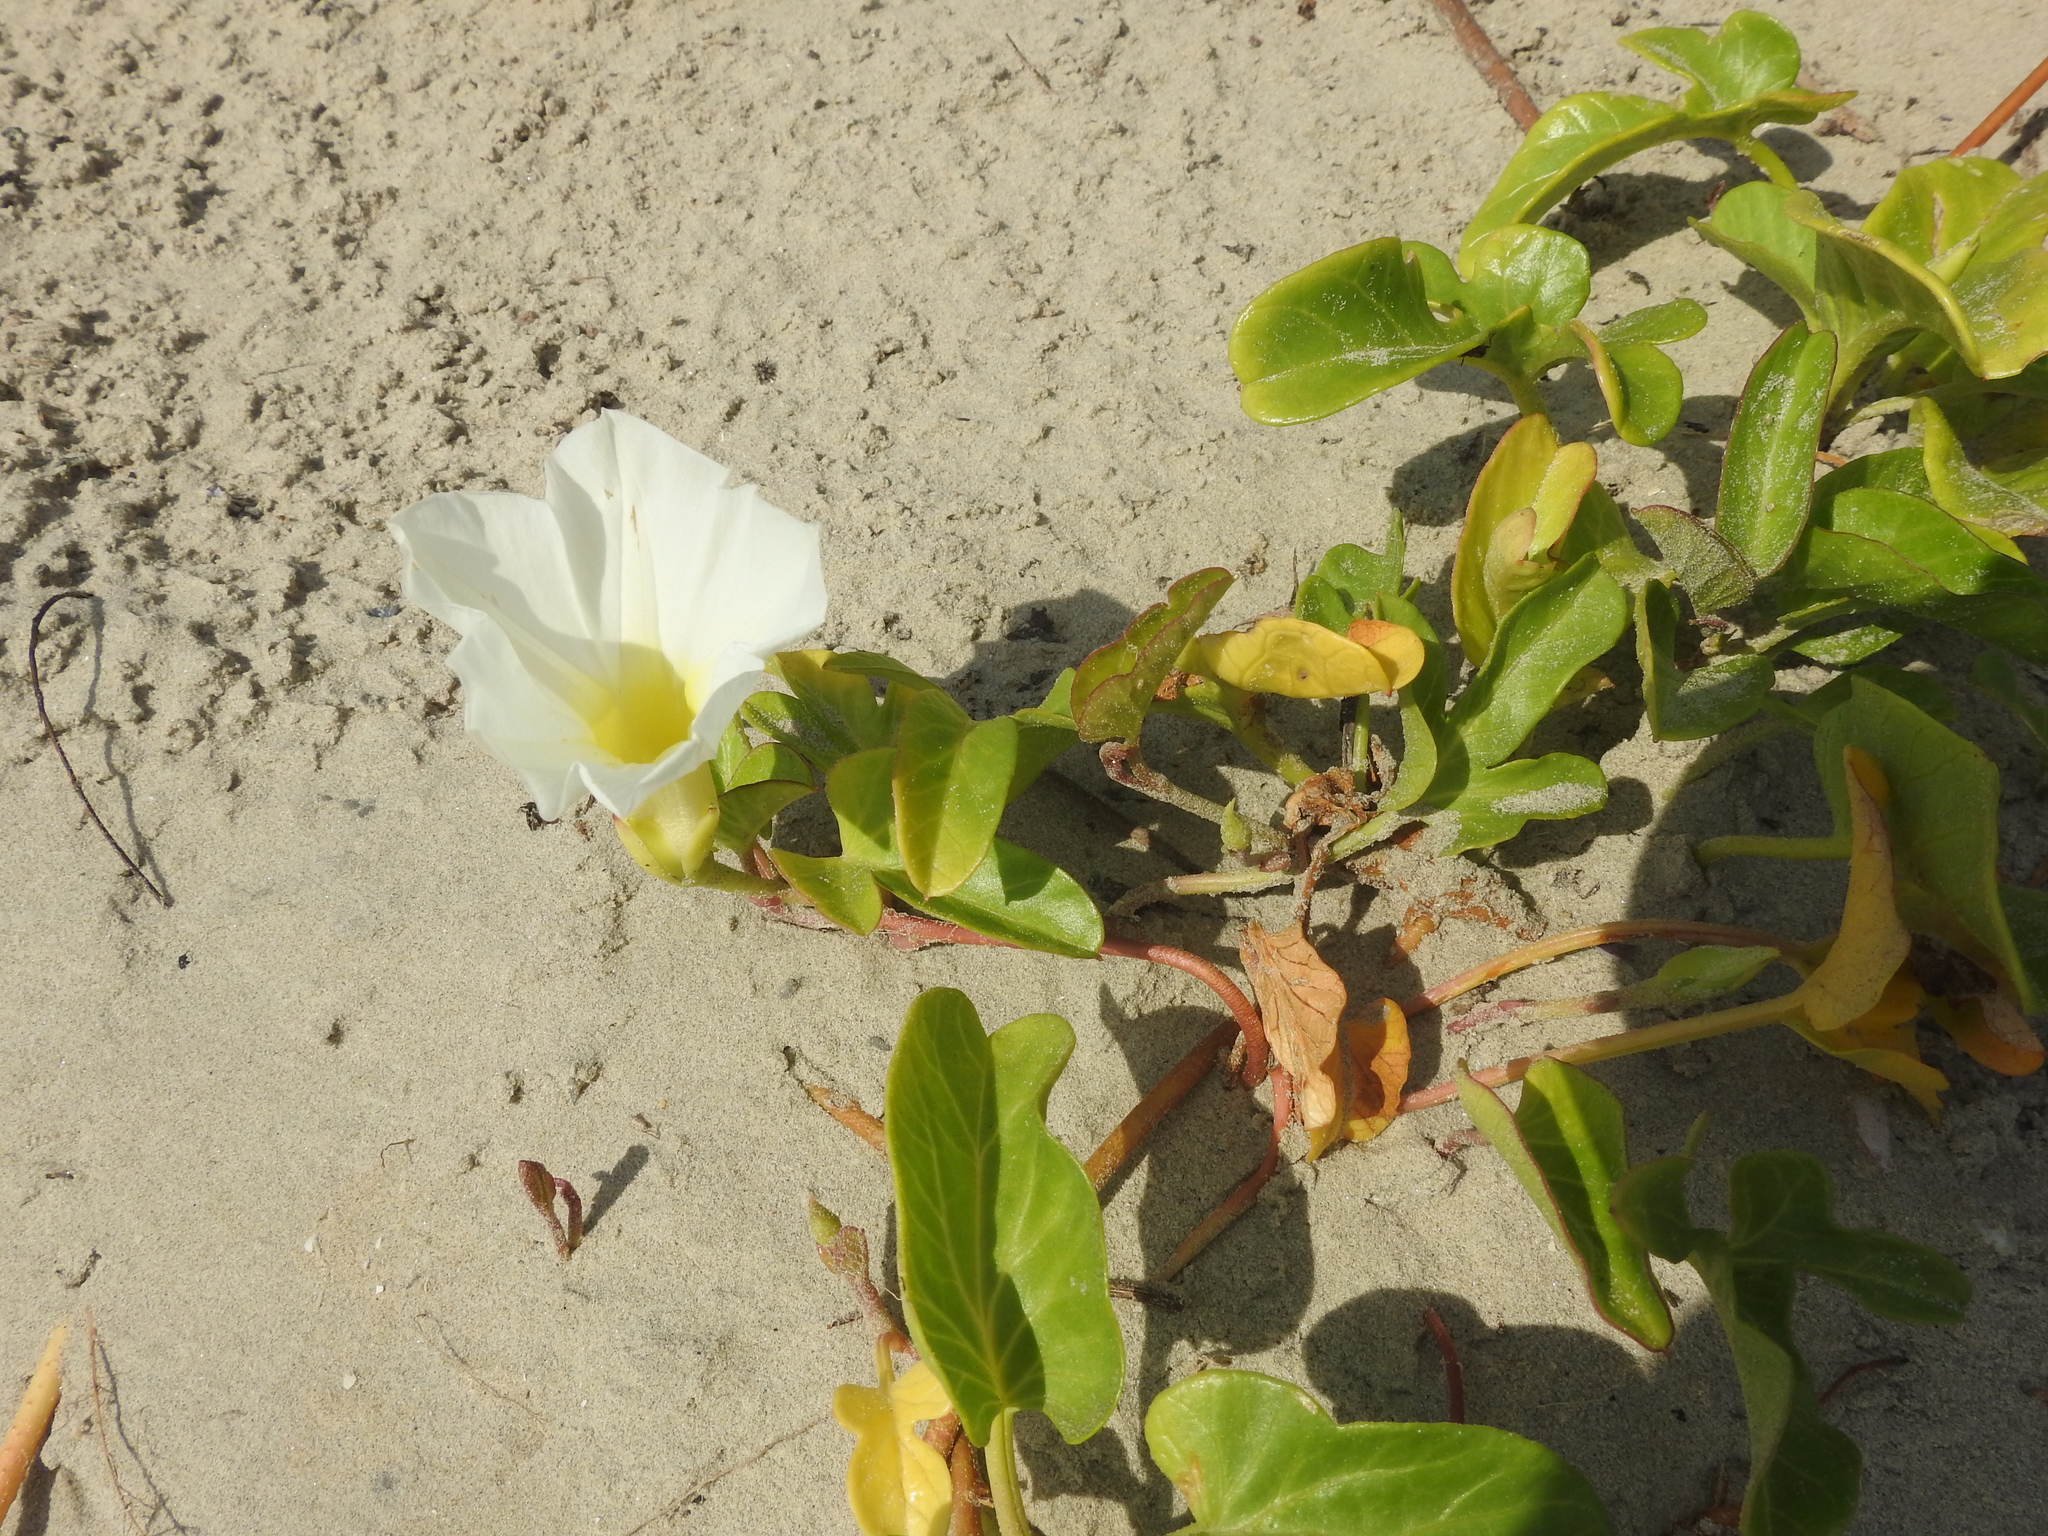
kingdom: Plantae
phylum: Tracheophyta
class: Magnoliopsida
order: Solanales
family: Convolvulaceae
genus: Ipomoea
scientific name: Ipomoea imperati
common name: Fiddle-leaf morning-glory
